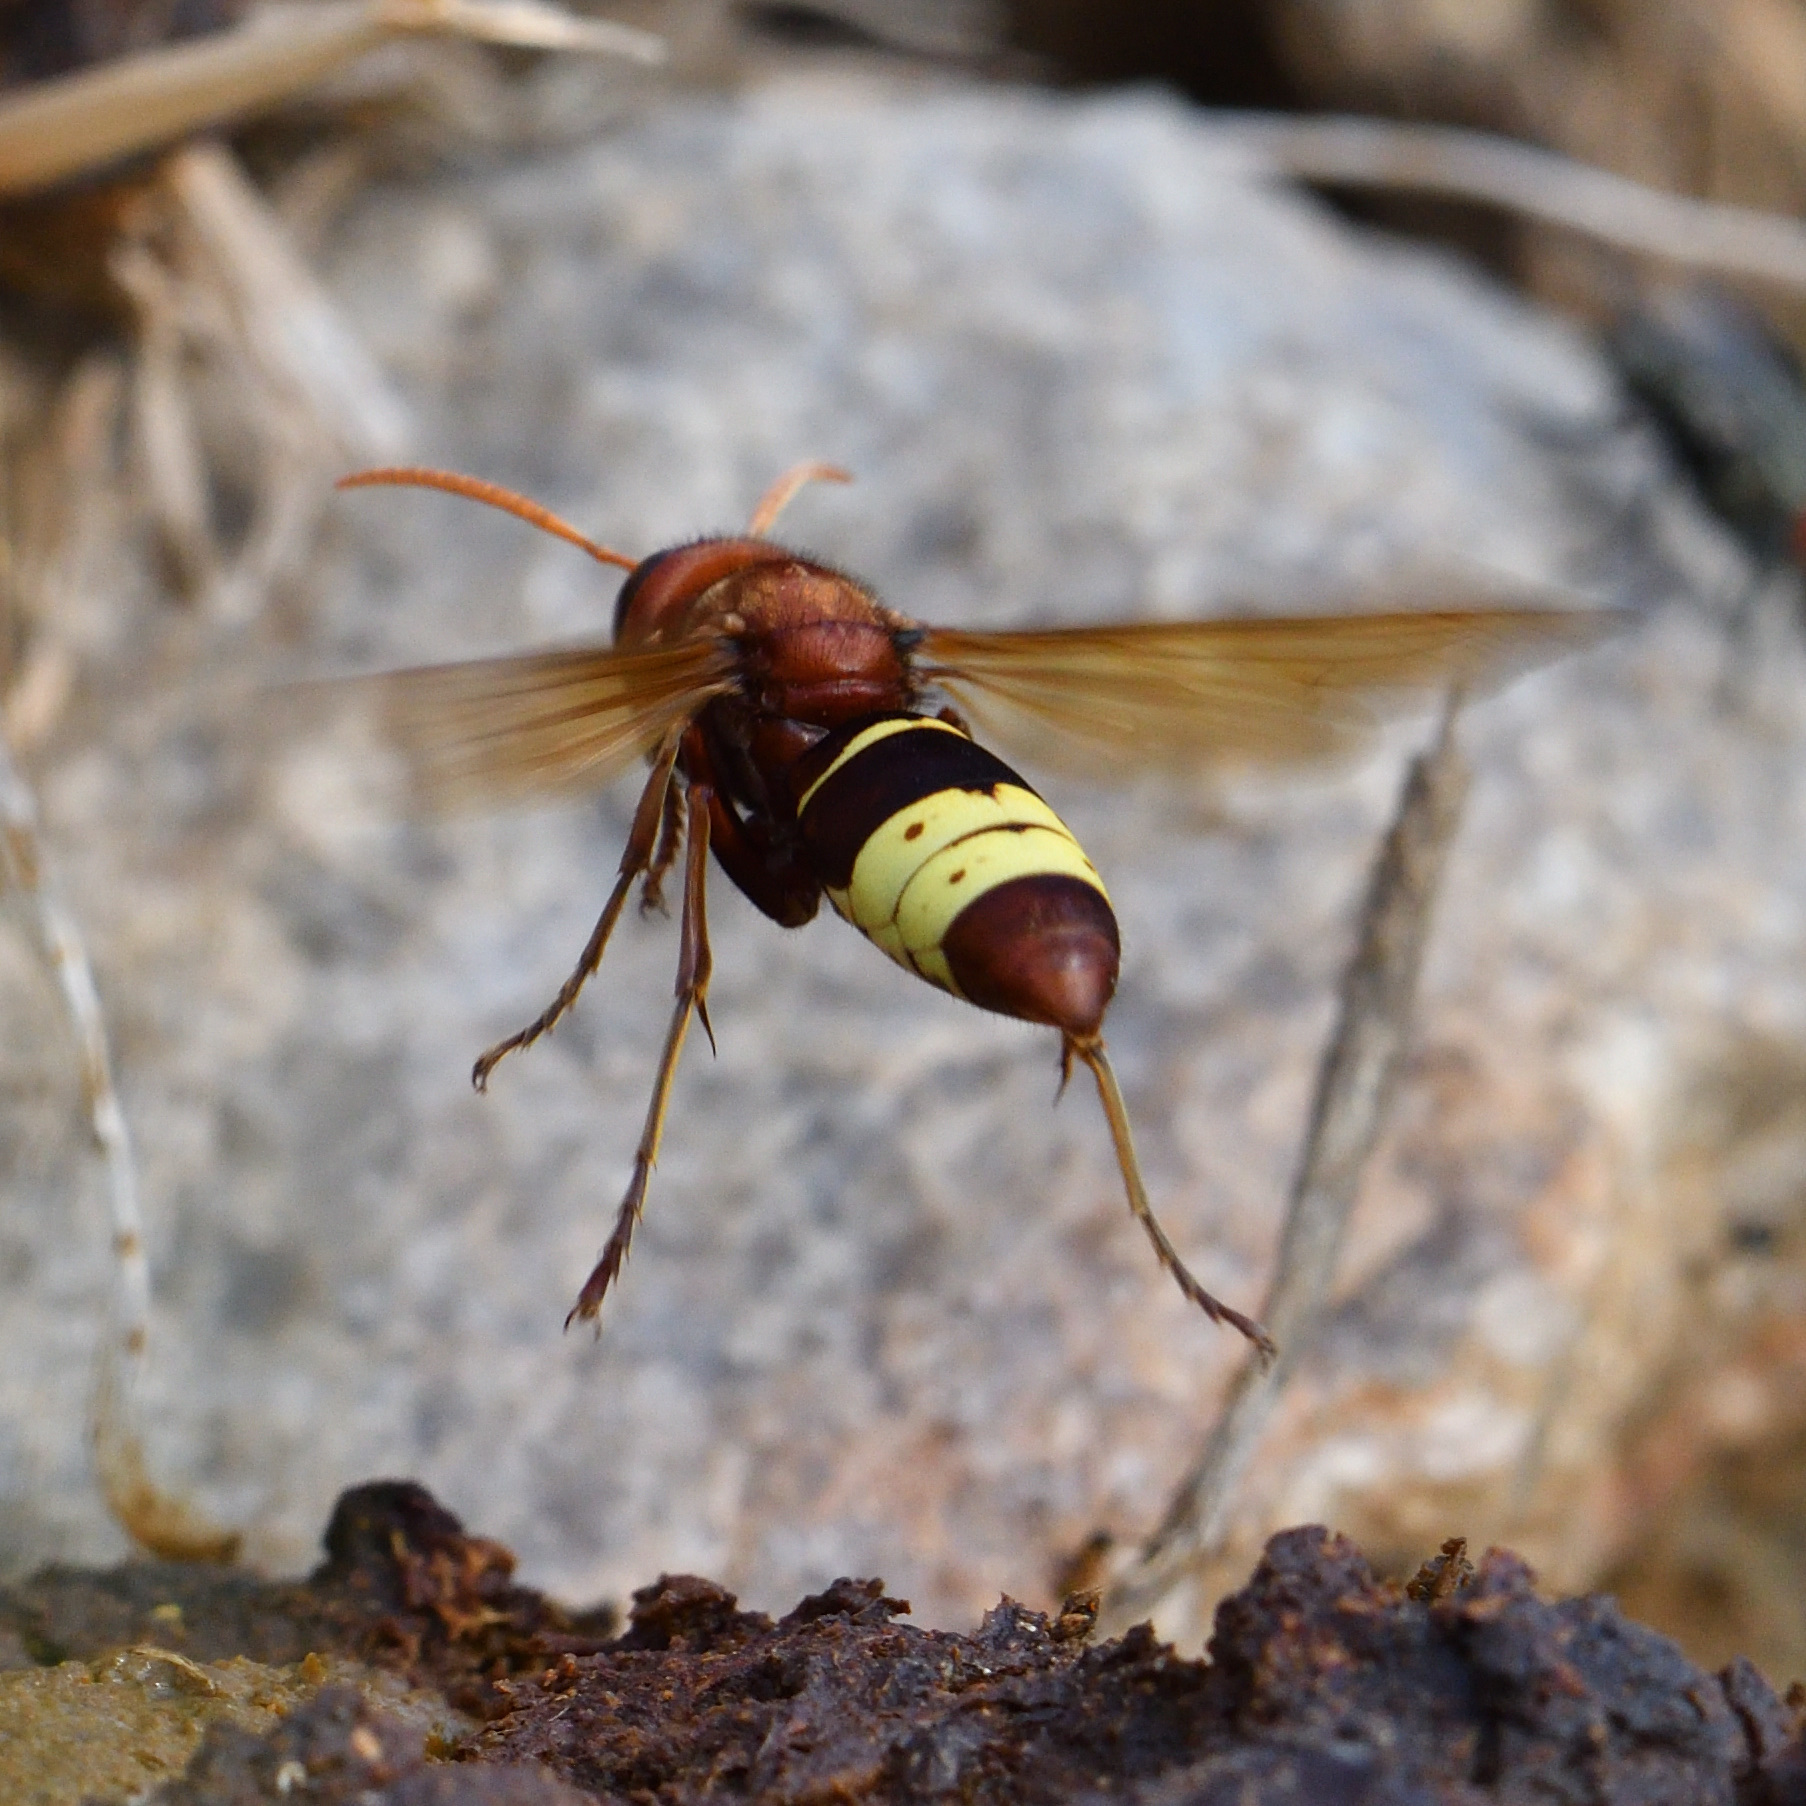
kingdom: Animalia
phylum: Arthropoda
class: Insecta
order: Hymenoptera
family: Vespidae
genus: Vespa
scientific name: Vespa orientalis
